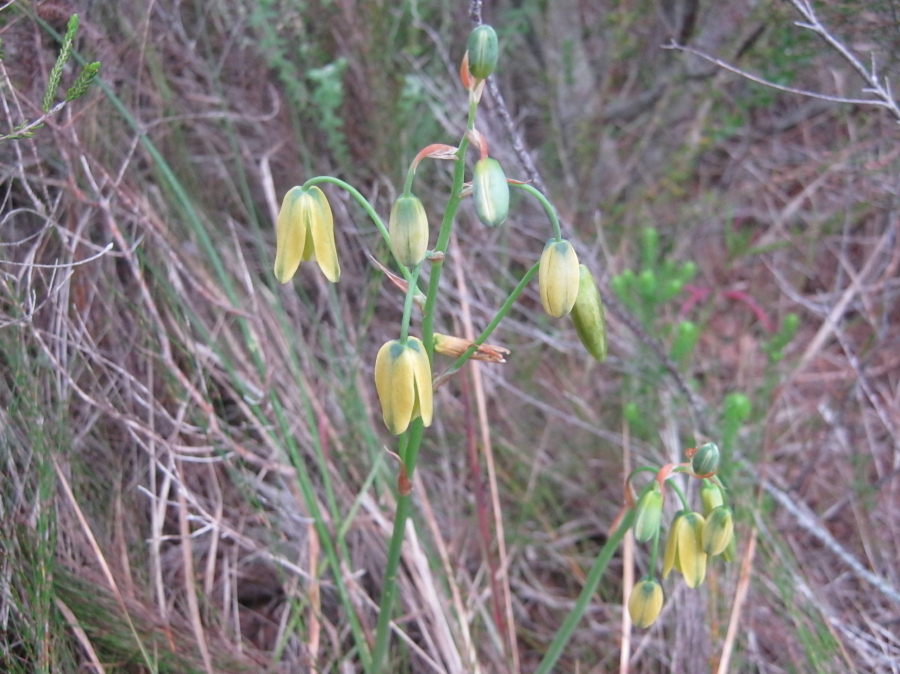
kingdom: Plantae
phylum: Tracheophyta
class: Liliopsida
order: Asparagales
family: Asparagaceae
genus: Albuca
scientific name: Albuca cooperi
